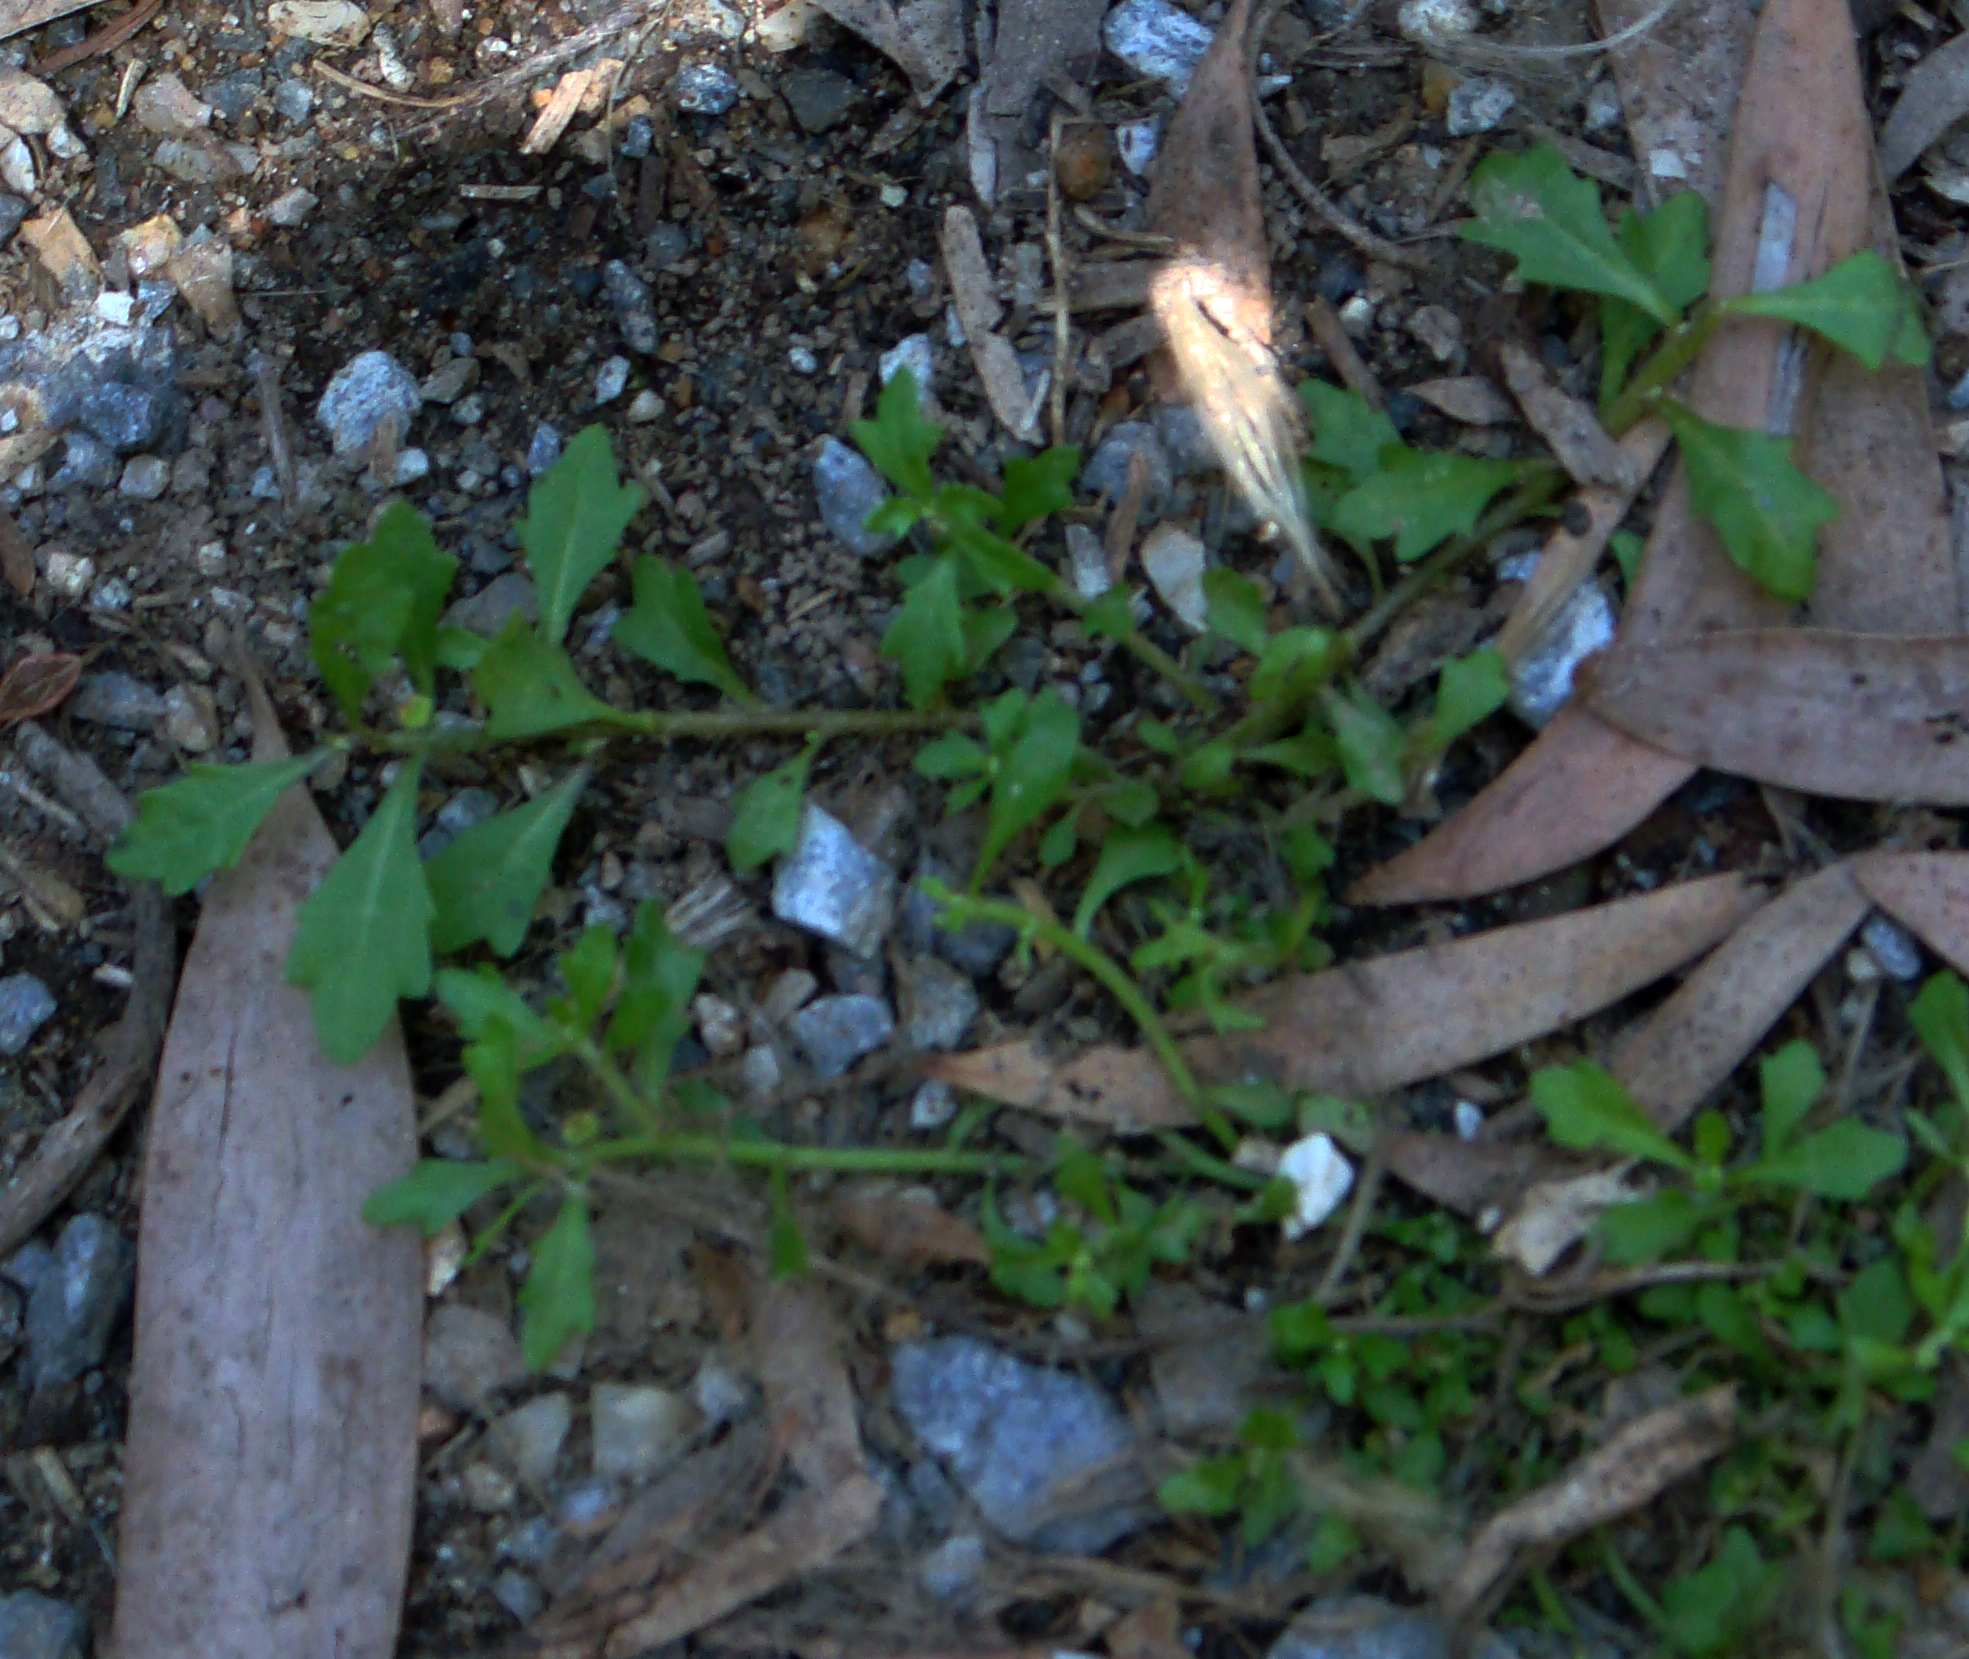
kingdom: Plantae
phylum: Tracheophyta
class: Magnoliopsida
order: Asterales
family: Asteraceae
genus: Centipeda
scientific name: Centipeda minima
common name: Spreading sneezeweed
